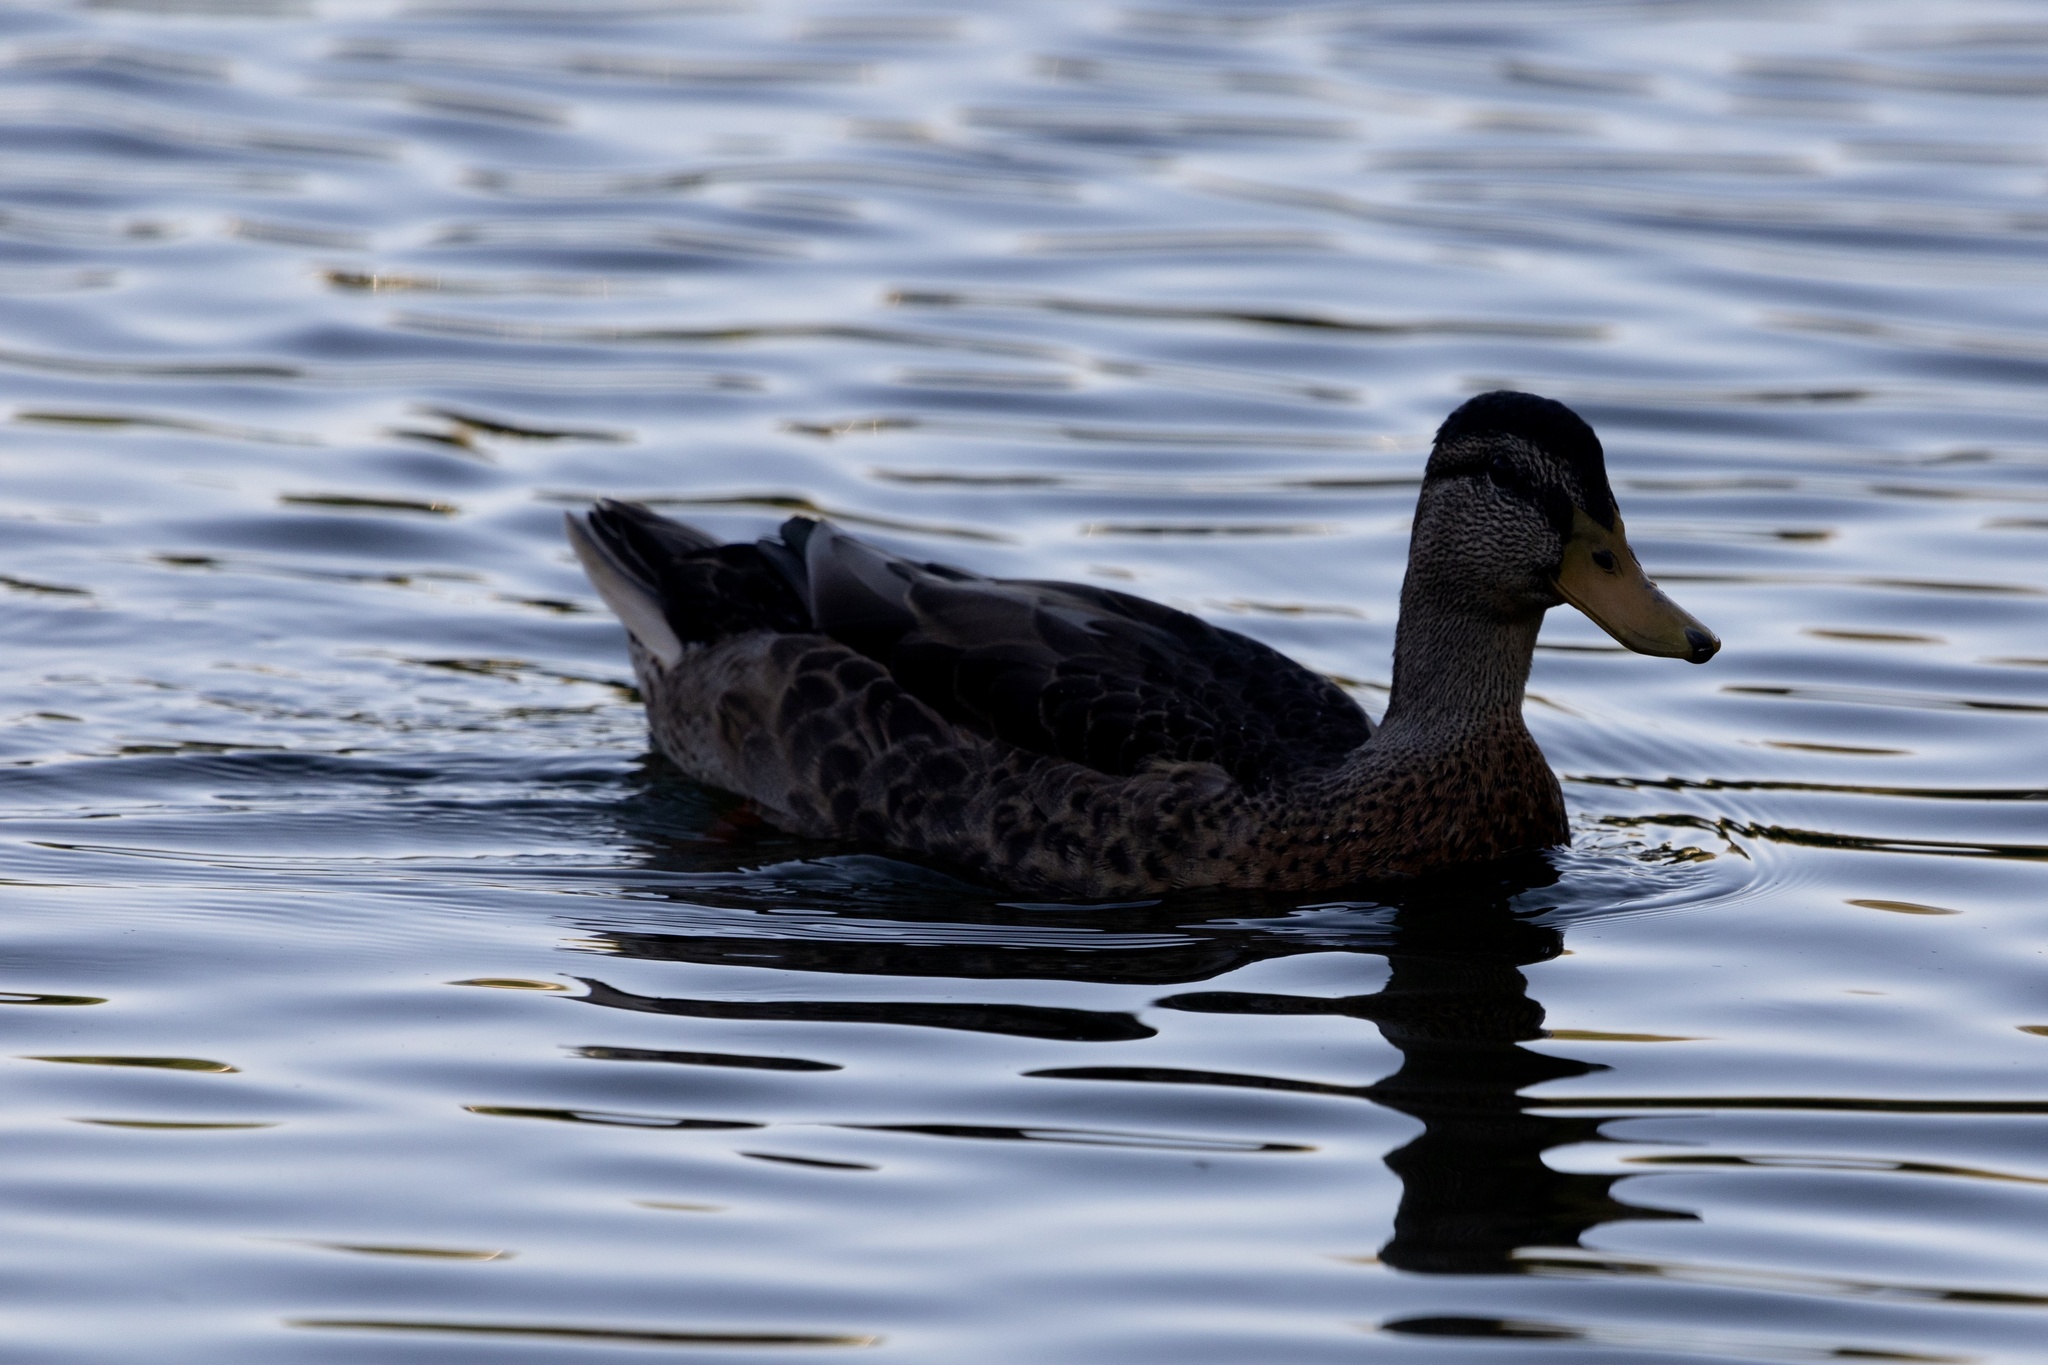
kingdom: Animalia
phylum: Chordata
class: Aves
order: Anseriformes
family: Anatidae
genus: Anas
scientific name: Anas platyrhynchos
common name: Mallard
